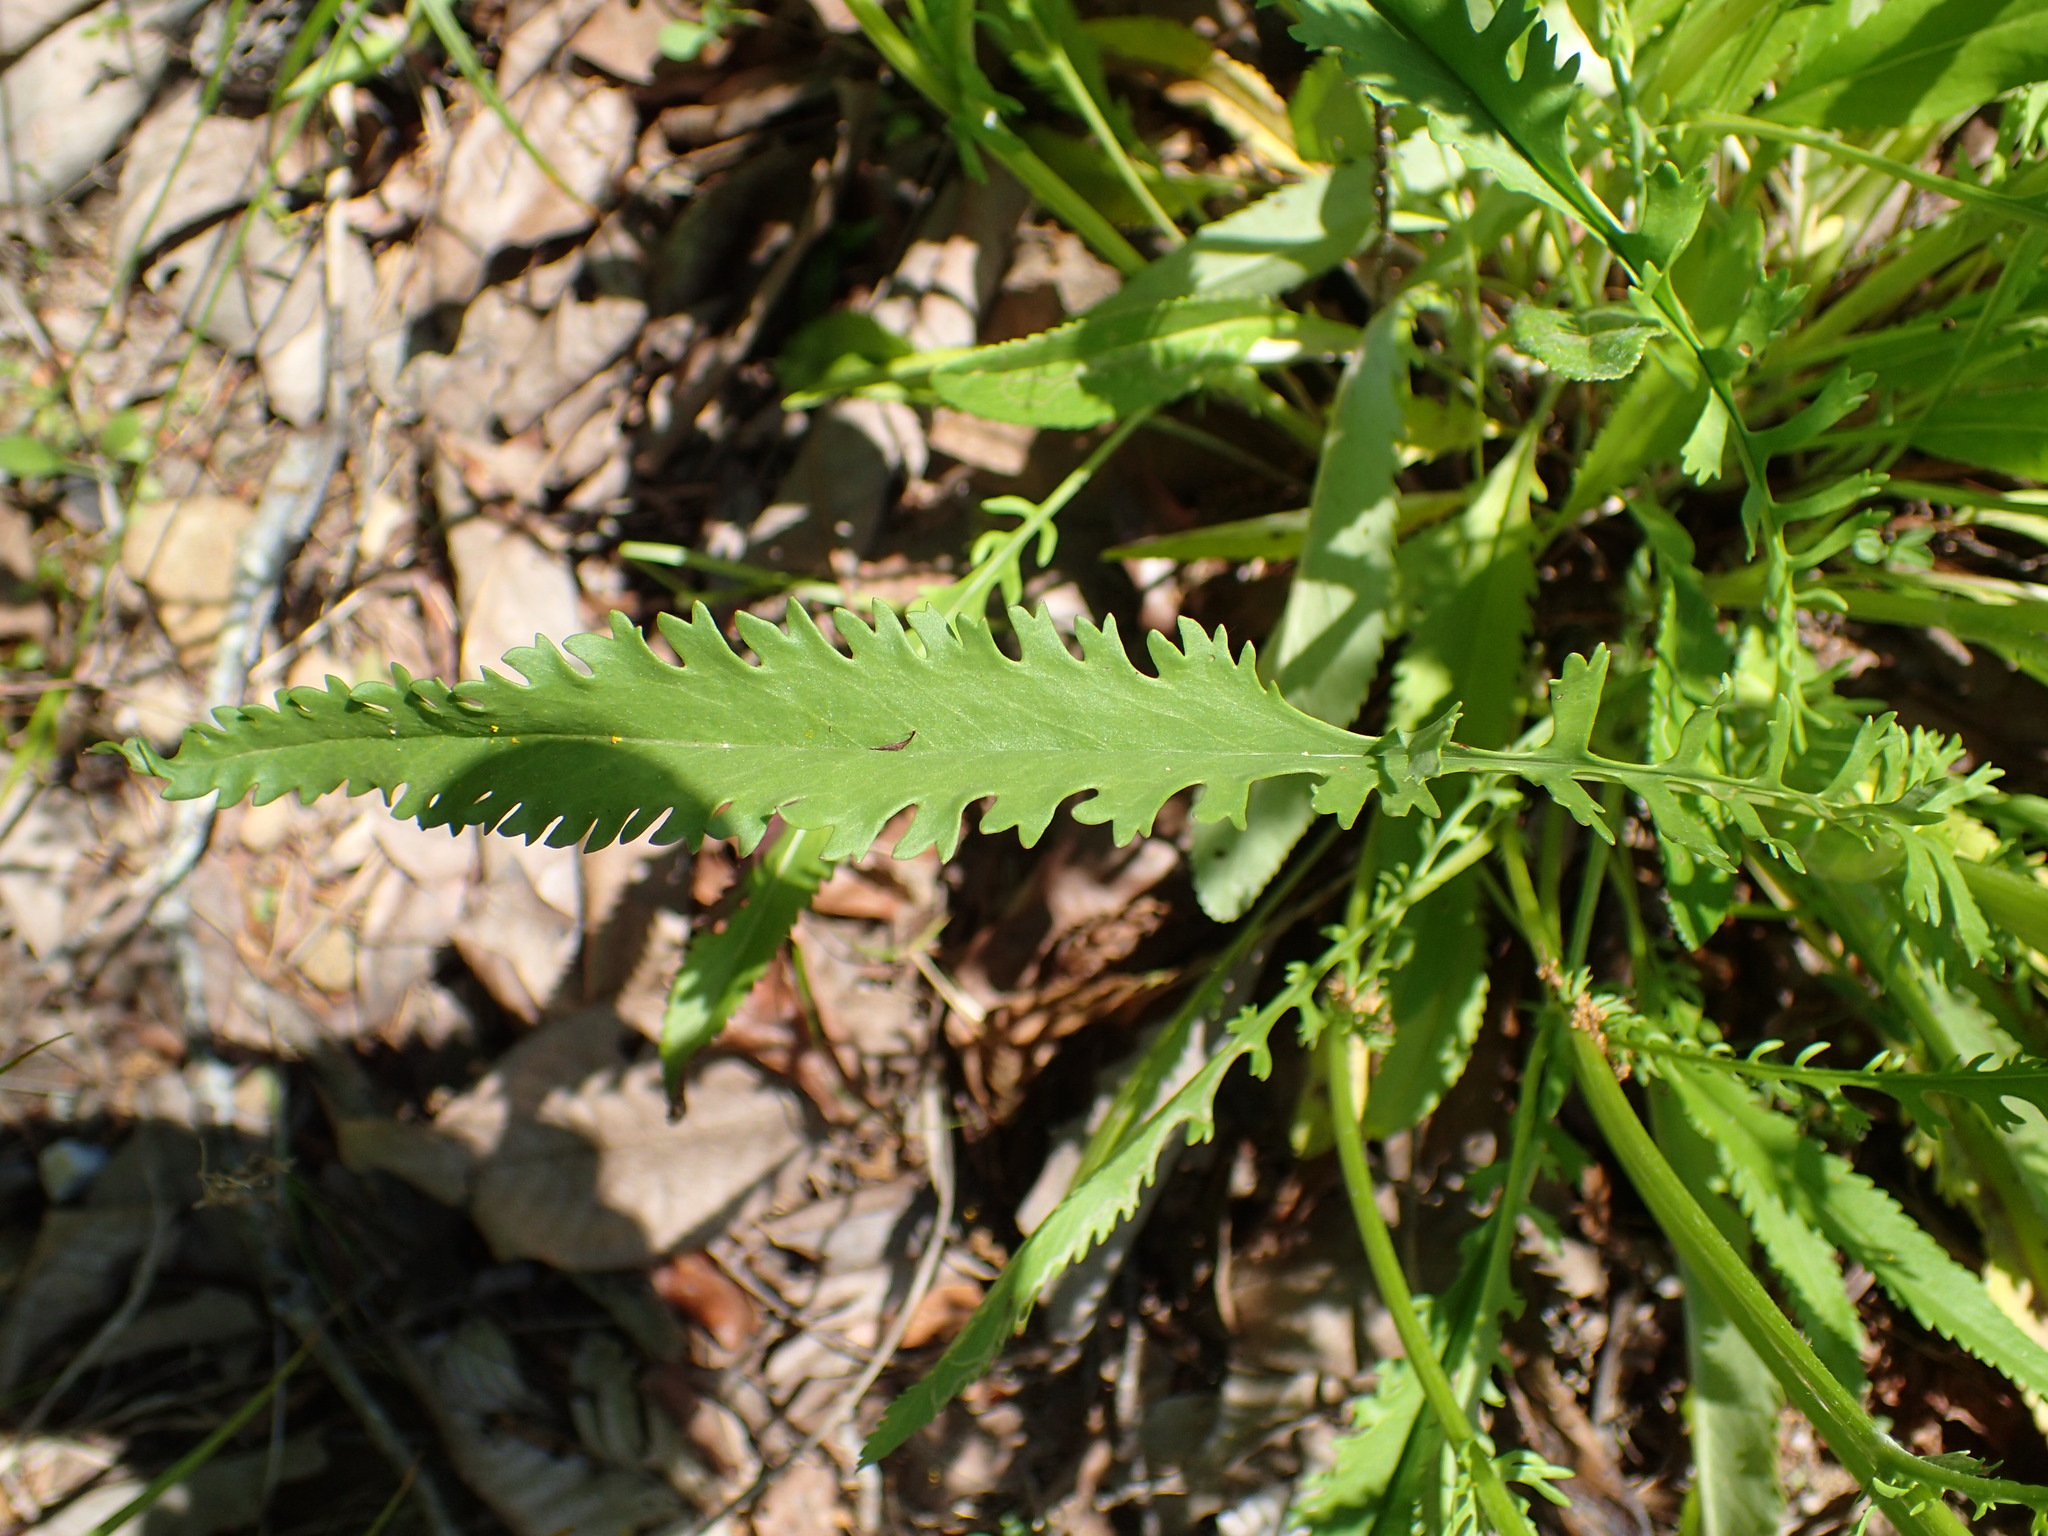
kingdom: Plantae
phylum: Tracheophyta
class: Magnoliopsida
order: Asterales
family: Asteraceae
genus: Packera
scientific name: Packera anonyma
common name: Small ragwort
